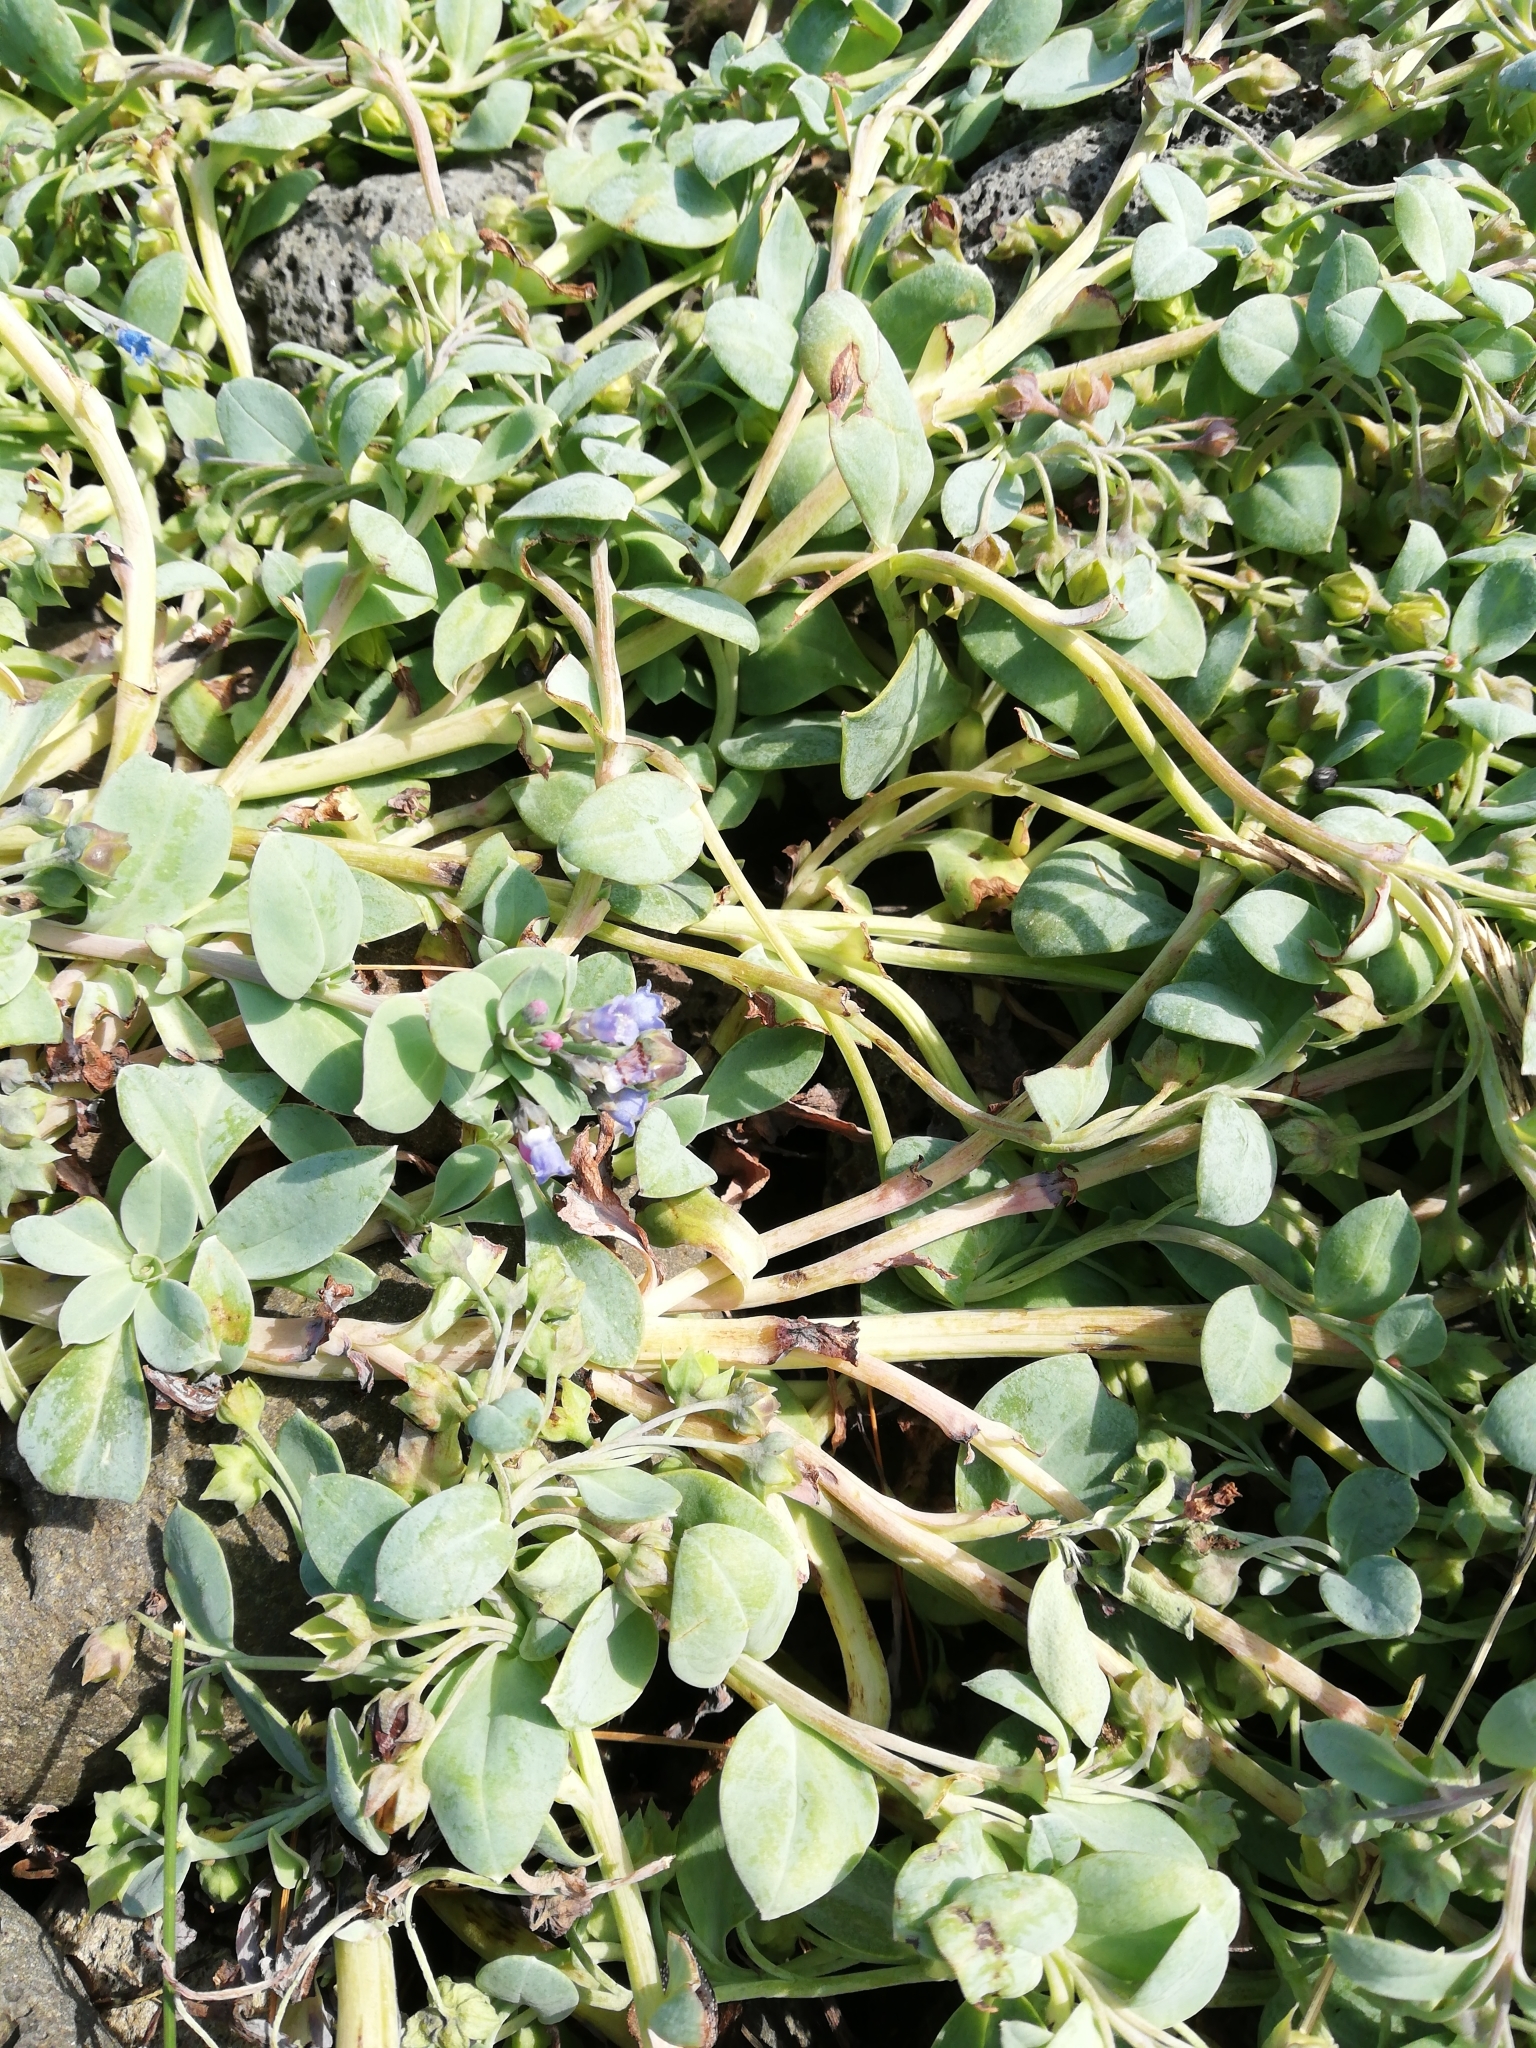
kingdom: Plantae
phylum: Tracheophyta
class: Magnoliopsida
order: Boraginales
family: Boraginaceae
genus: Mertensia
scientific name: Mertensia maritima
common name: Oysterplant
